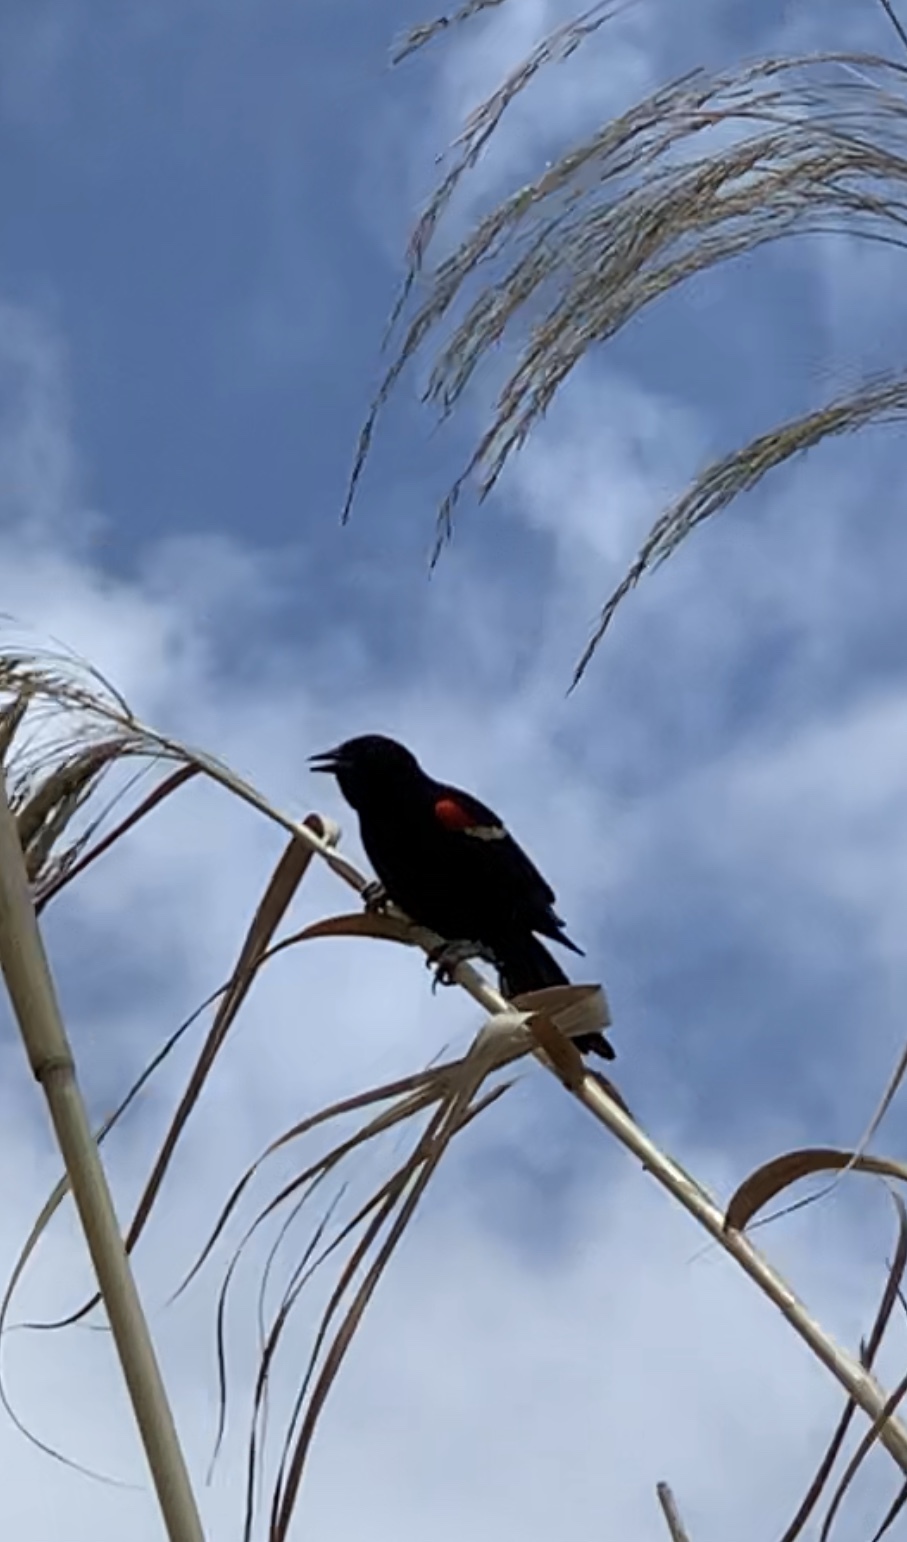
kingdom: Animalia
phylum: Chordata
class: Aves
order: Passeriformes
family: Icteridae
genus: Agelaius
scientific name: Agelaius phoeniceus
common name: Red-winged blackbird
